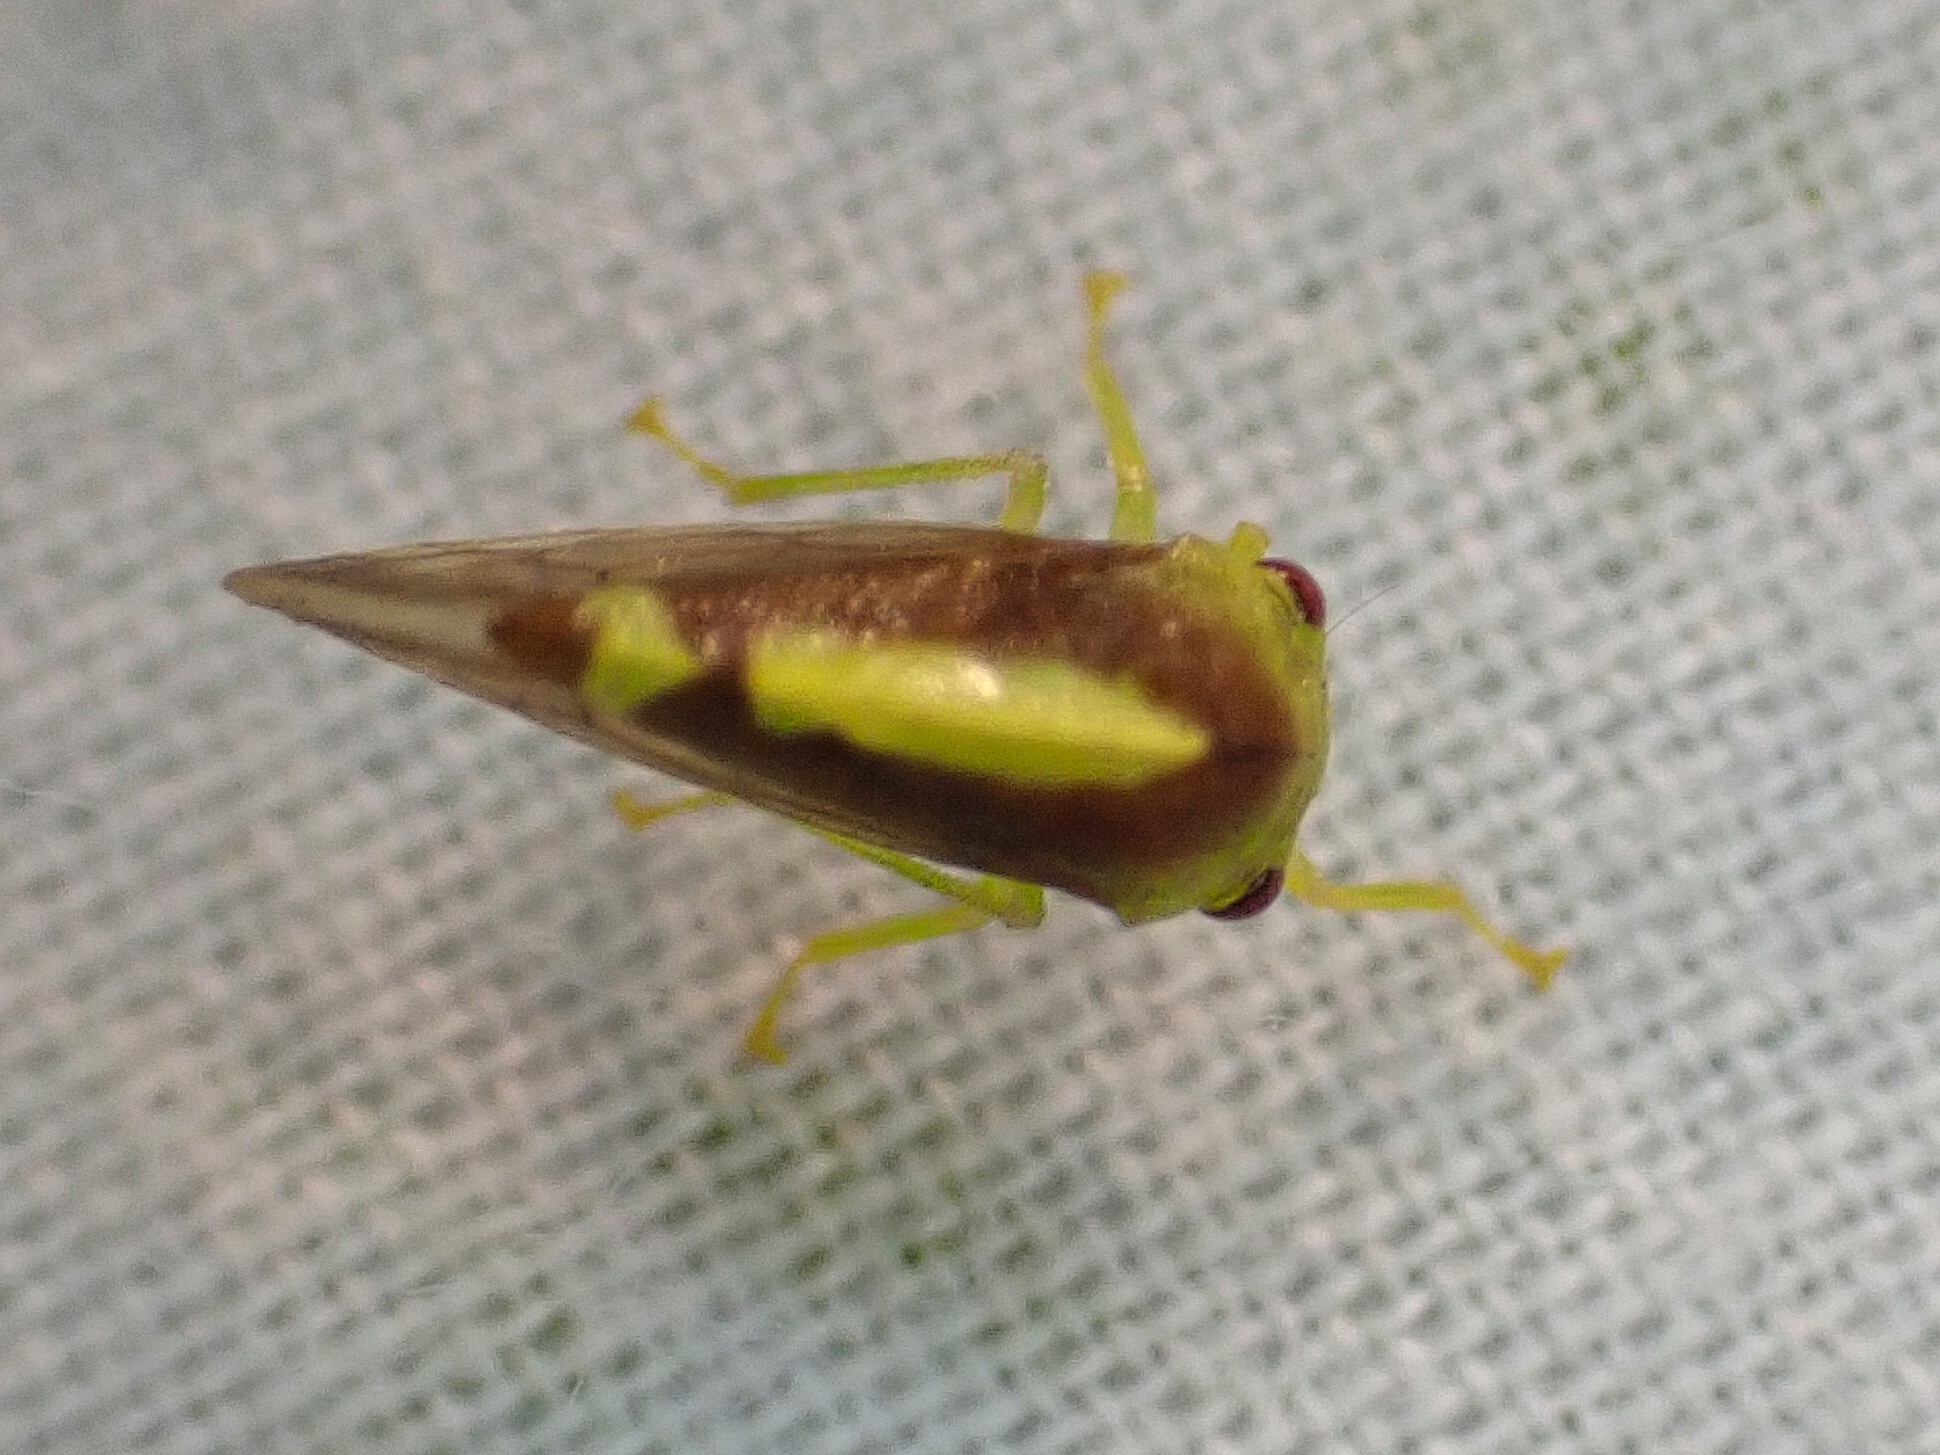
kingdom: Animalia
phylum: Arthropoda
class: Insecta
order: Hemiptera
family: Membracidae
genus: Atymna
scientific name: Atymna querci
